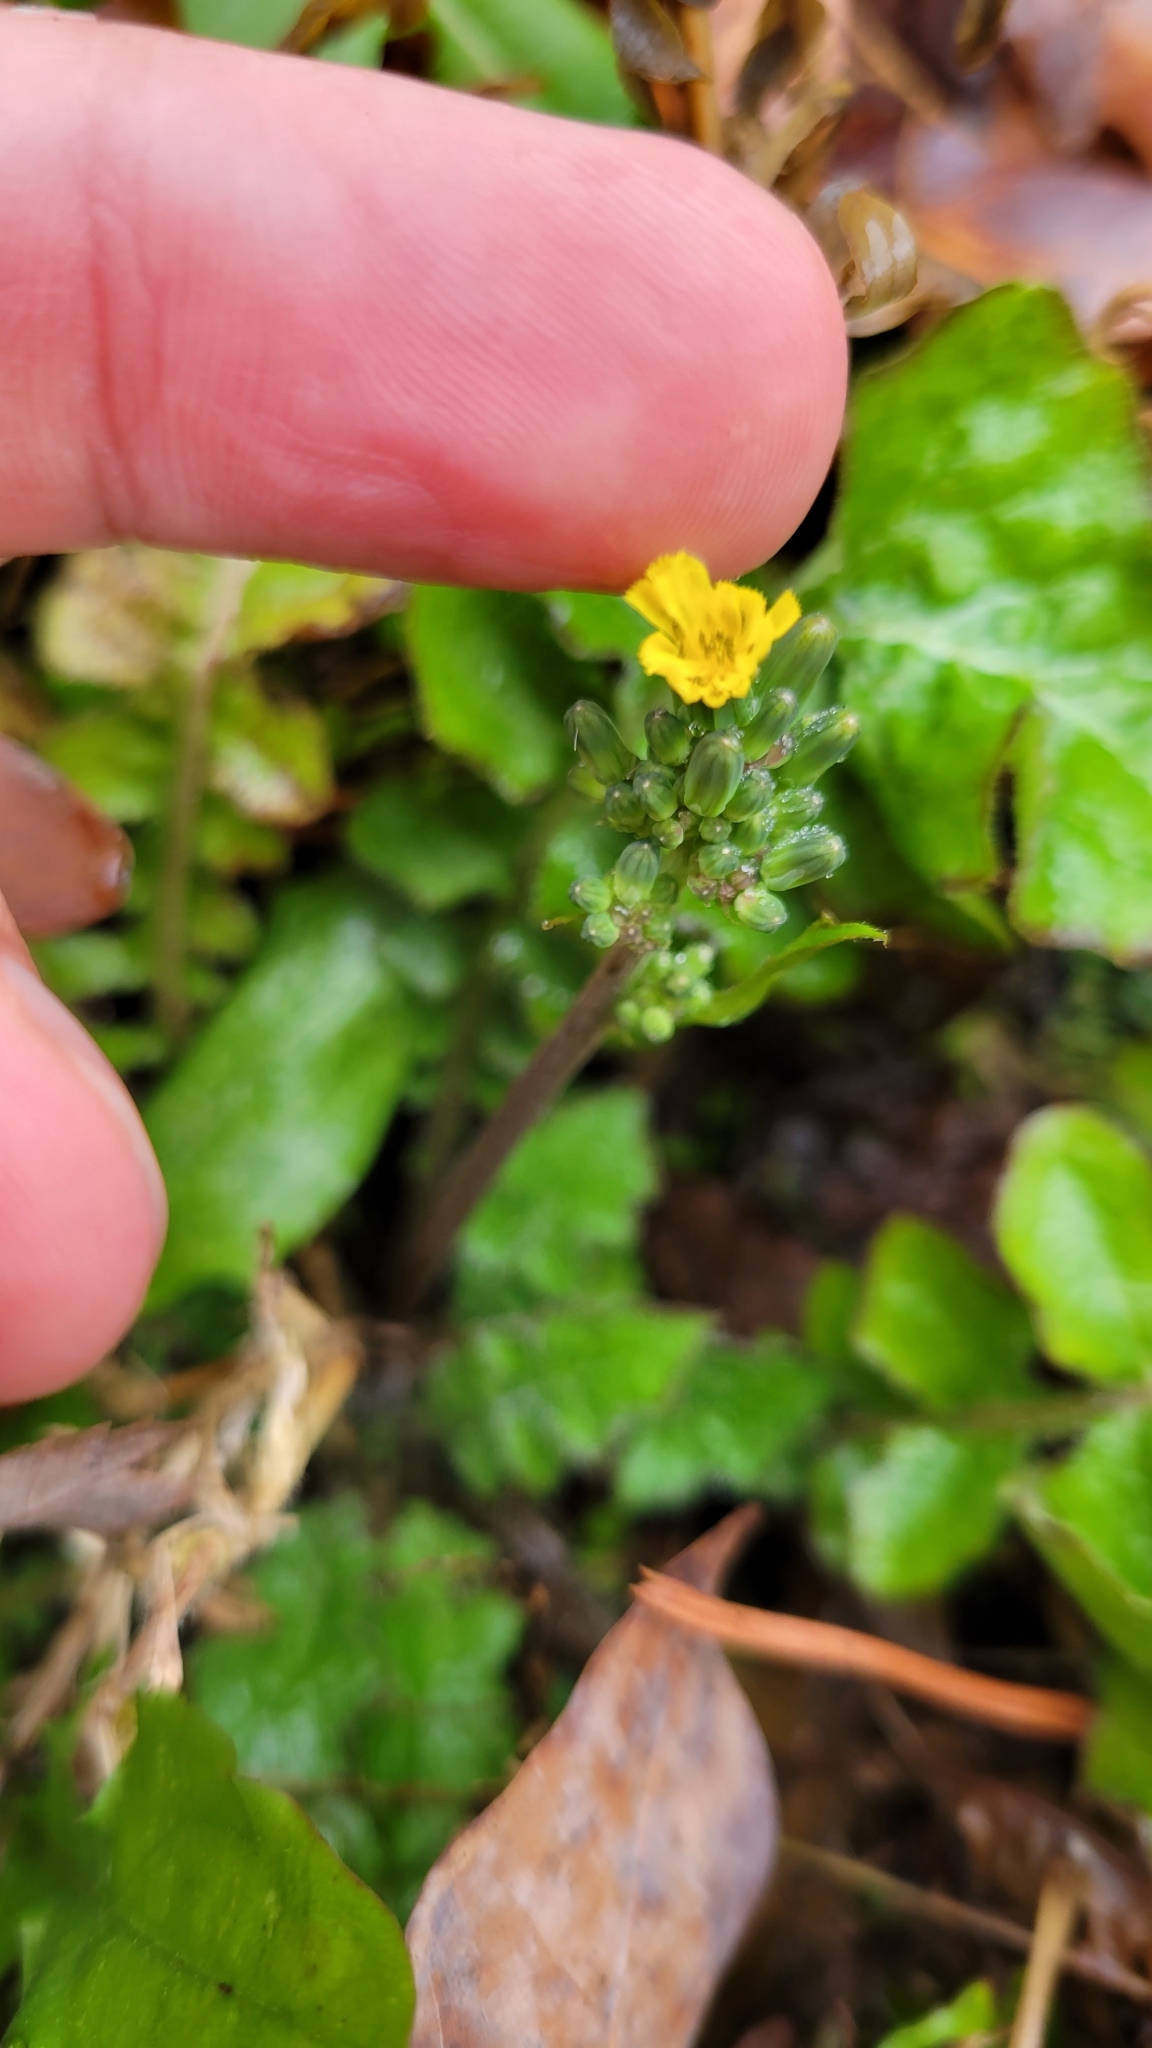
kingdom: Plantae
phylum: Tracheophyta
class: Magnoliopsida
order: Asterales
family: Asteraceae
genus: Youngia
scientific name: Youngia japonica
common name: Oriental false hawksbeard
